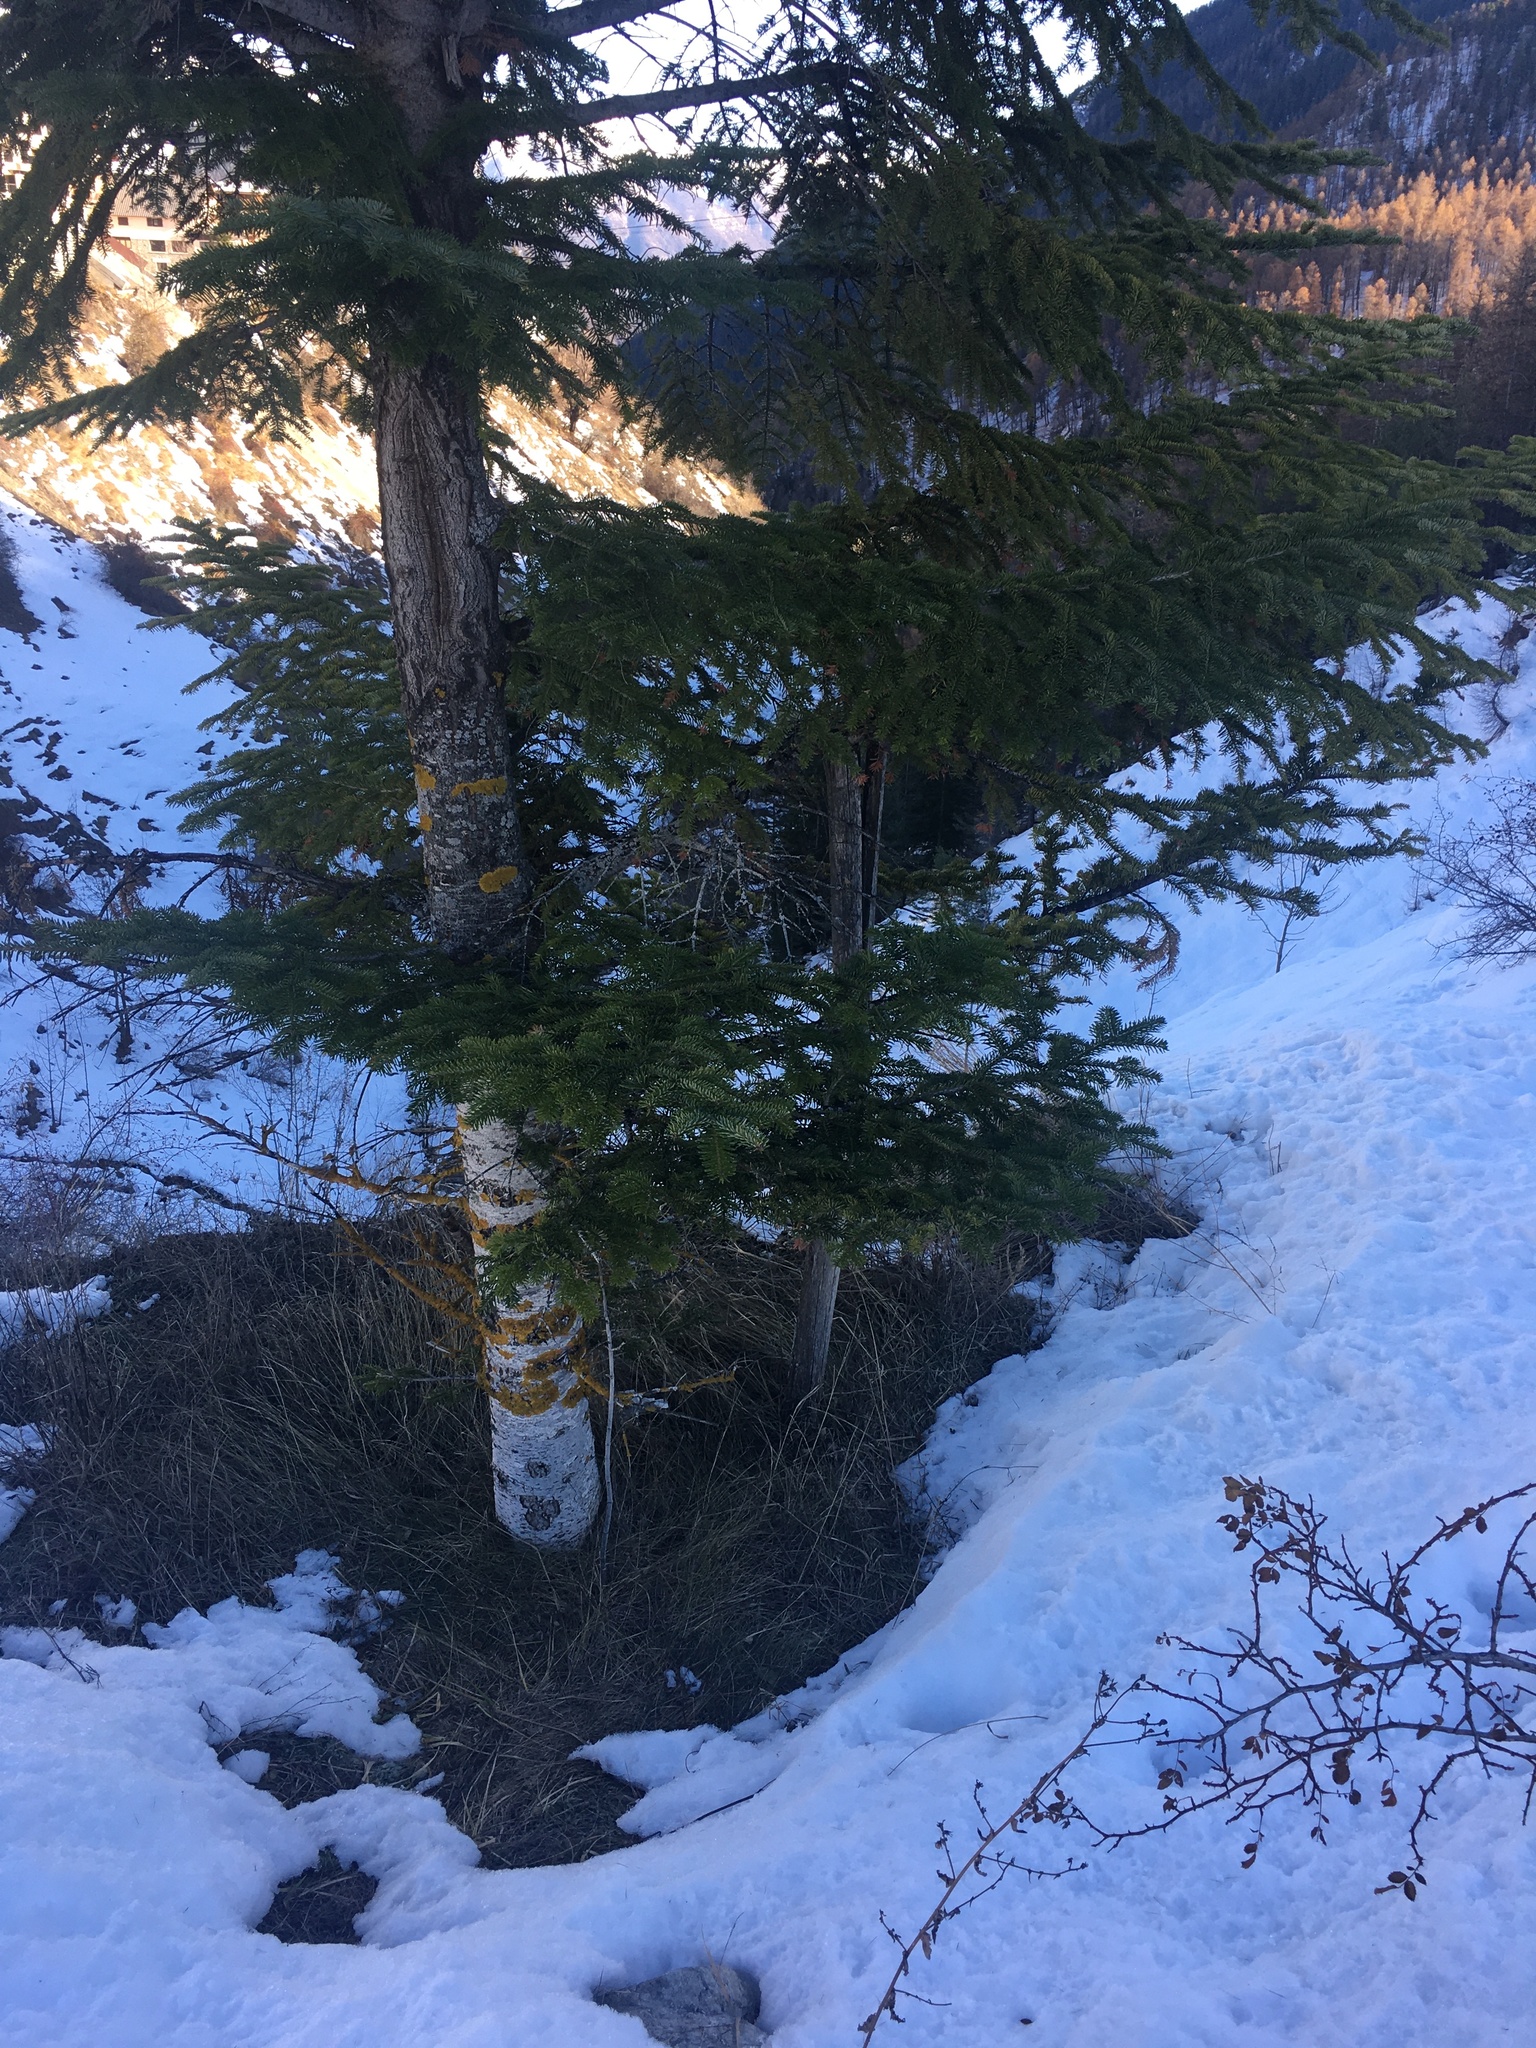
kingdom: Plantae
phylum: Tracheophyta
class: Pinopsida
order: Pinales
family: Pinaceae
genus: Picea
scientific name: Picea abies
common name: Norway spruce
